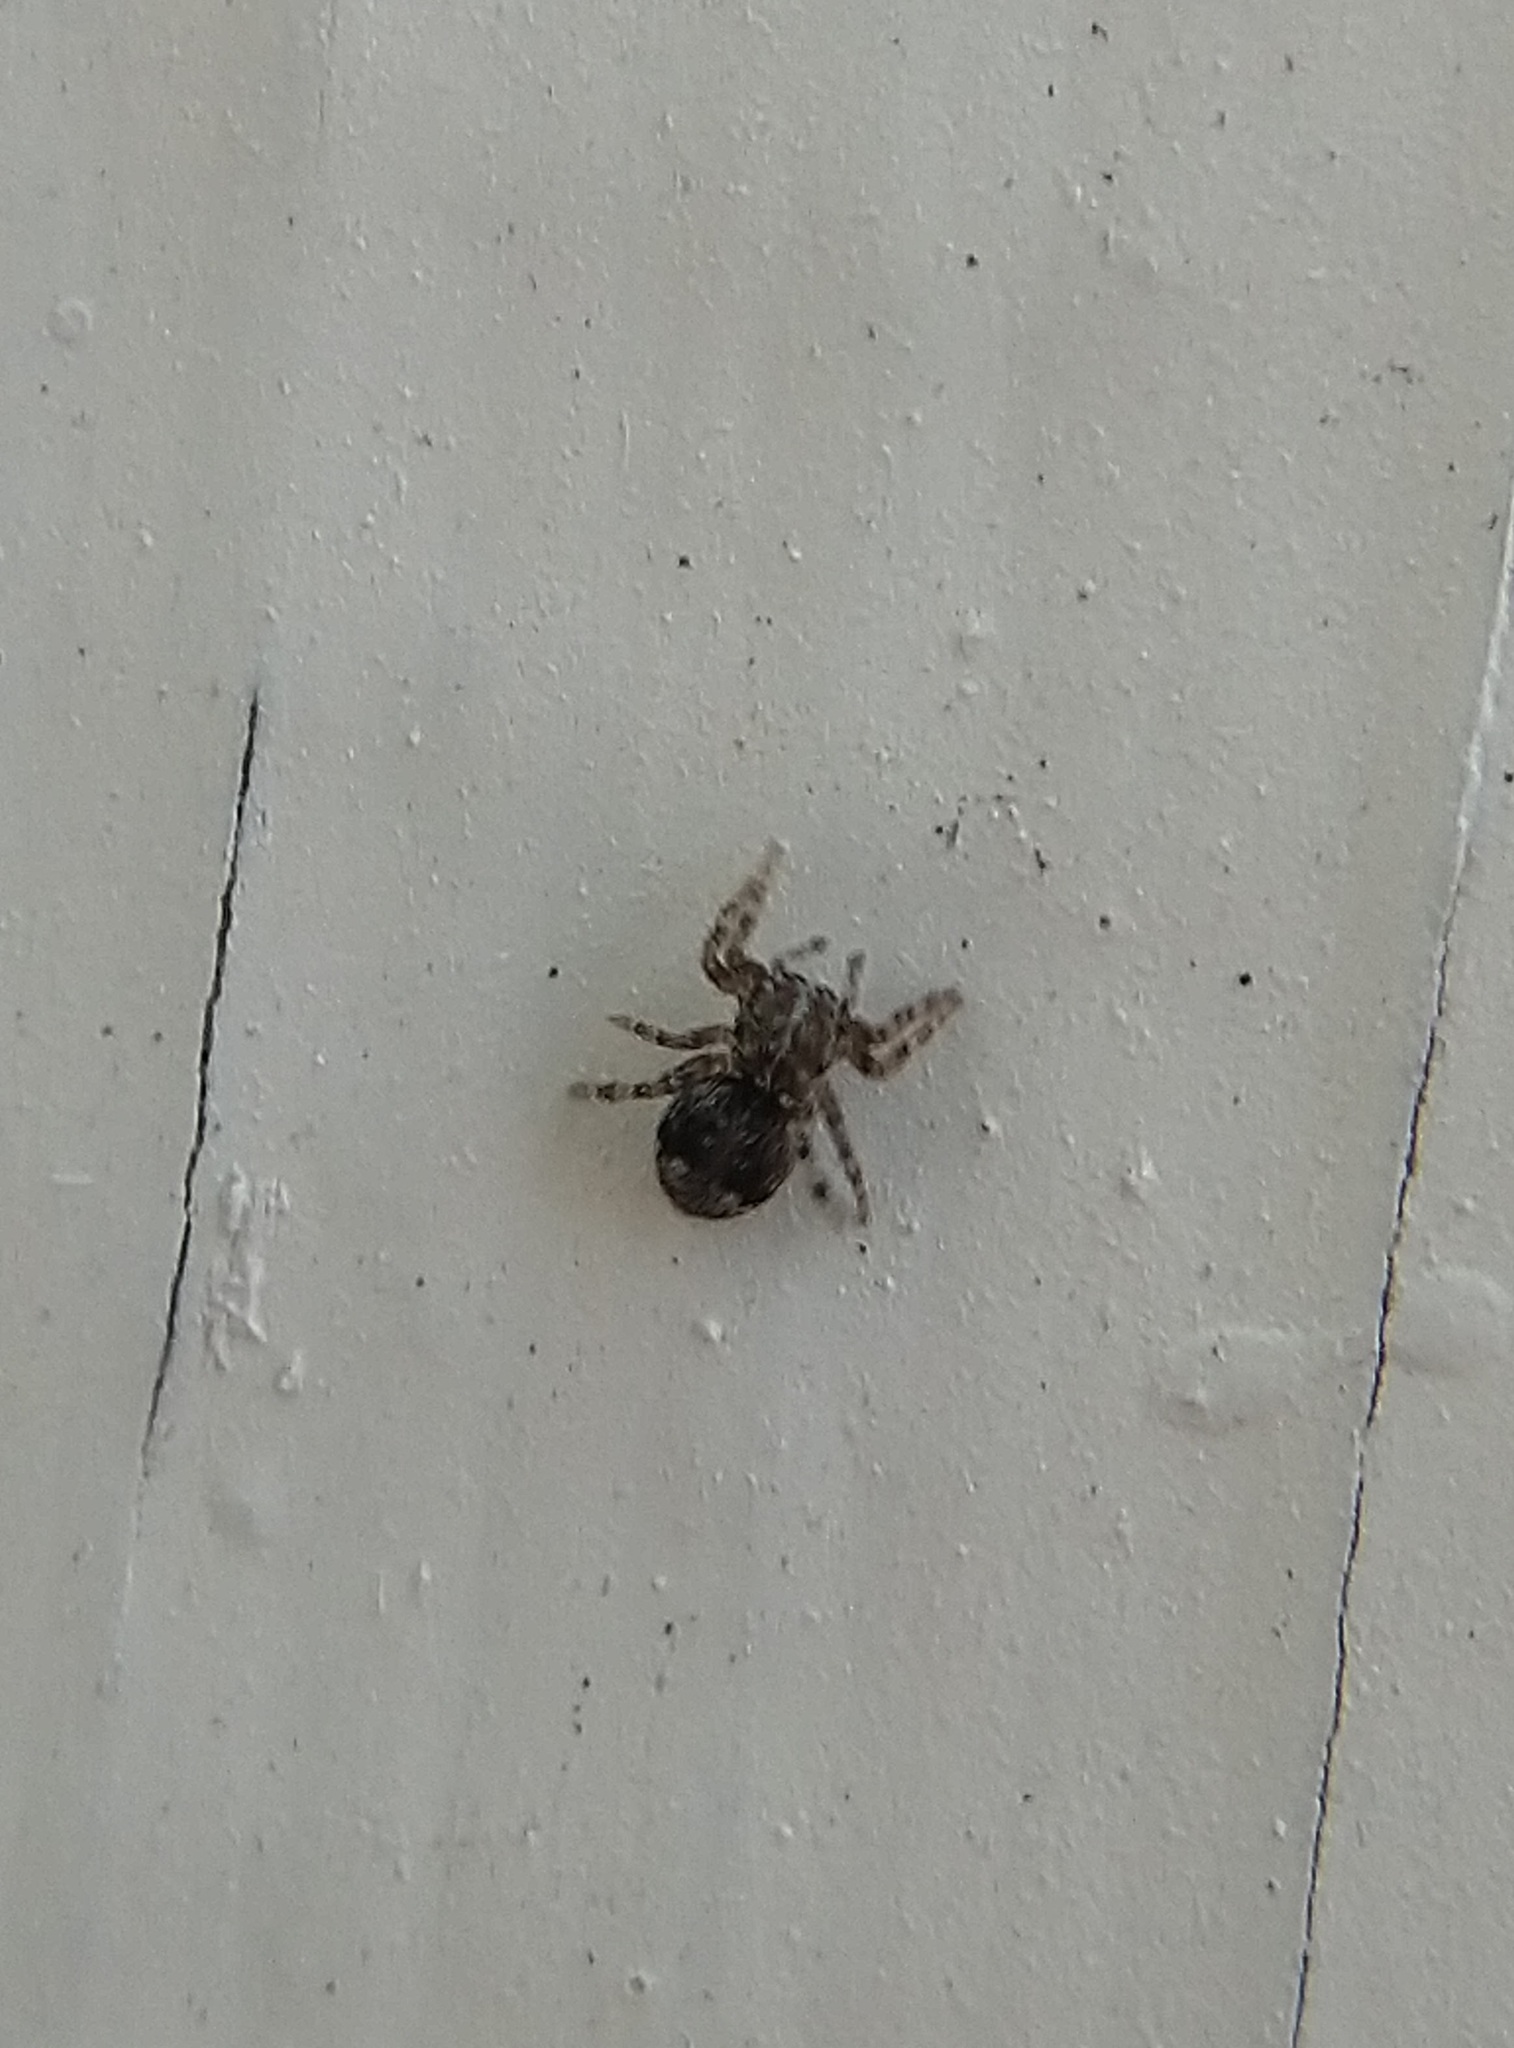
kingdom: Animalia
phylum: Arthropoda
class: Arachnida
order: Araneae
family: Salticidae
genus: Attulus
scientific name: Attulus fasciger
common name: Asiatic wall jumping spider
